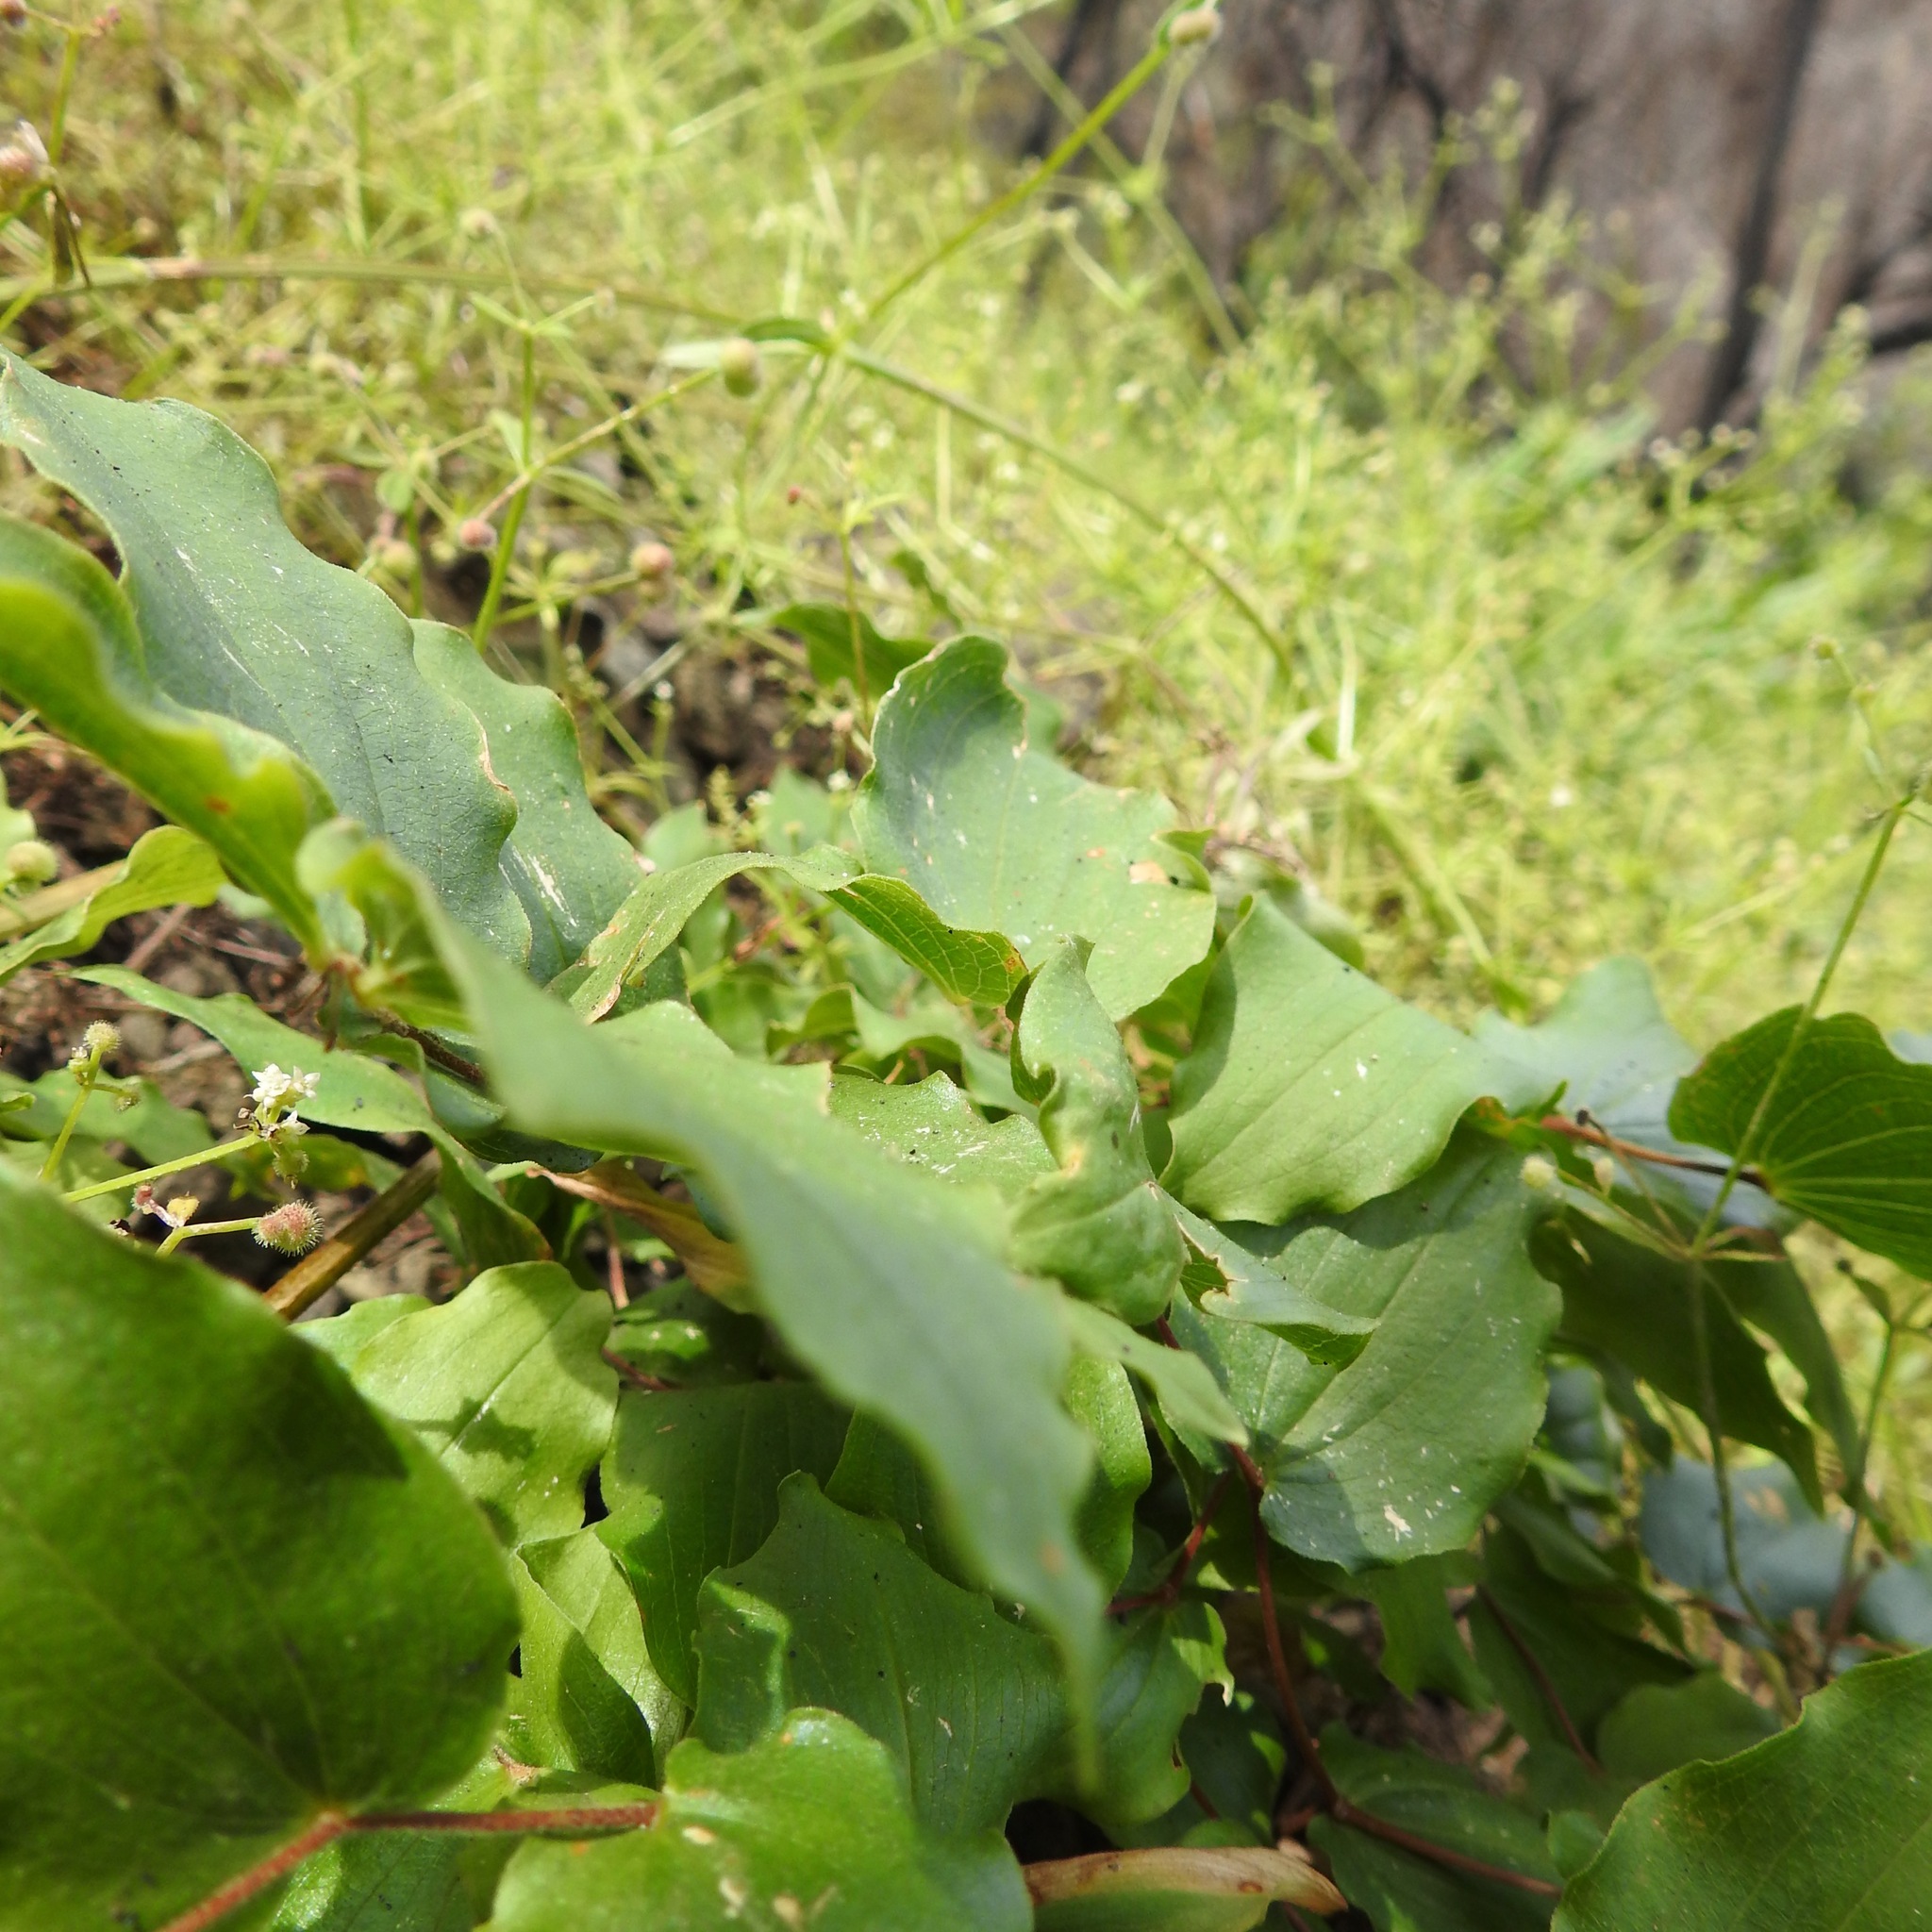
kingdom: Plantae
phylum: Tracheophyta
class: Liliopsida
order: Liliales
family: Liliaceae
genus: Prosartes
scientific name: Prosartes hookeri
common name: Fairy-bells
